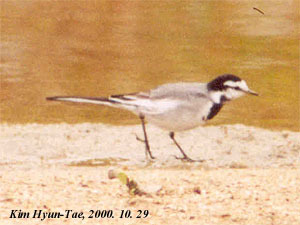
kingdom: Animalia
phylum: Chordata
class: Aves
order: Passeriformes
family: Motacillidae
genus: Motacilla
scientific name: Motacilla alba
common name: White wagtail
